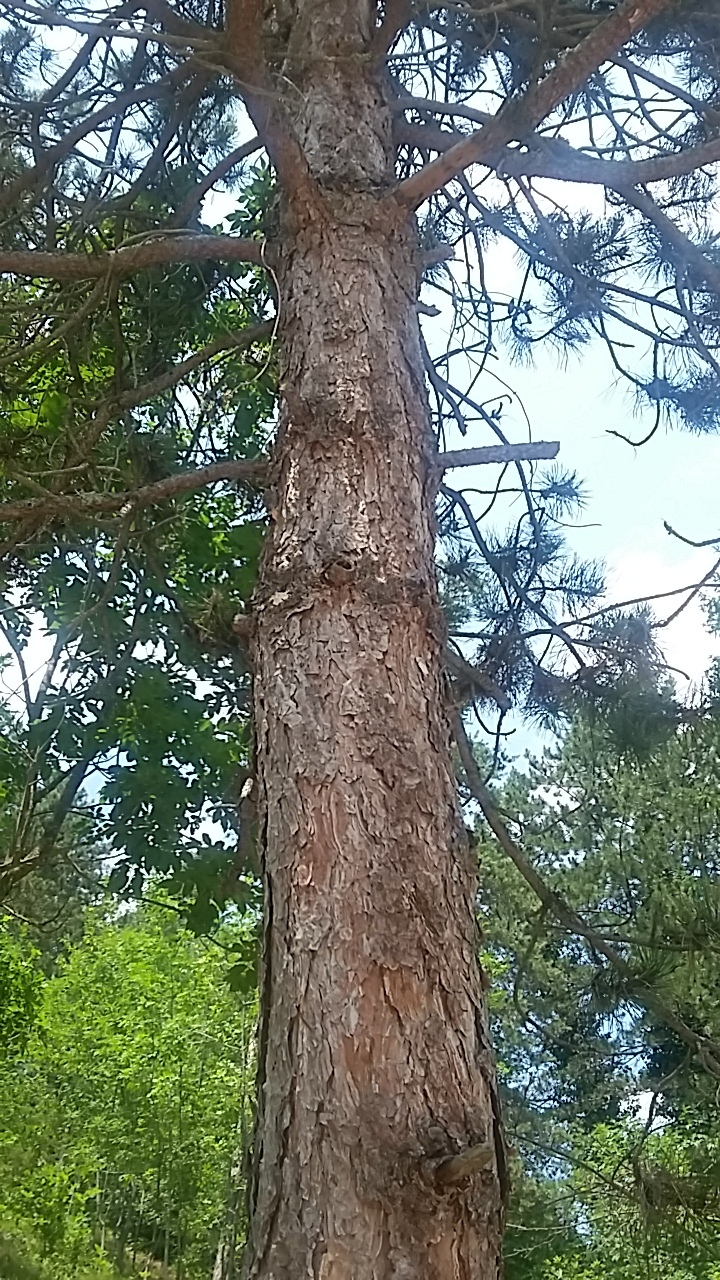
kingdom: Plantae
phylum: Tracheophyta
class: Pinopsida
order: Pinales
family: Pinaceae
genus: Pinus
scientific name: Pinus sylvestris
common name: Scots pine
